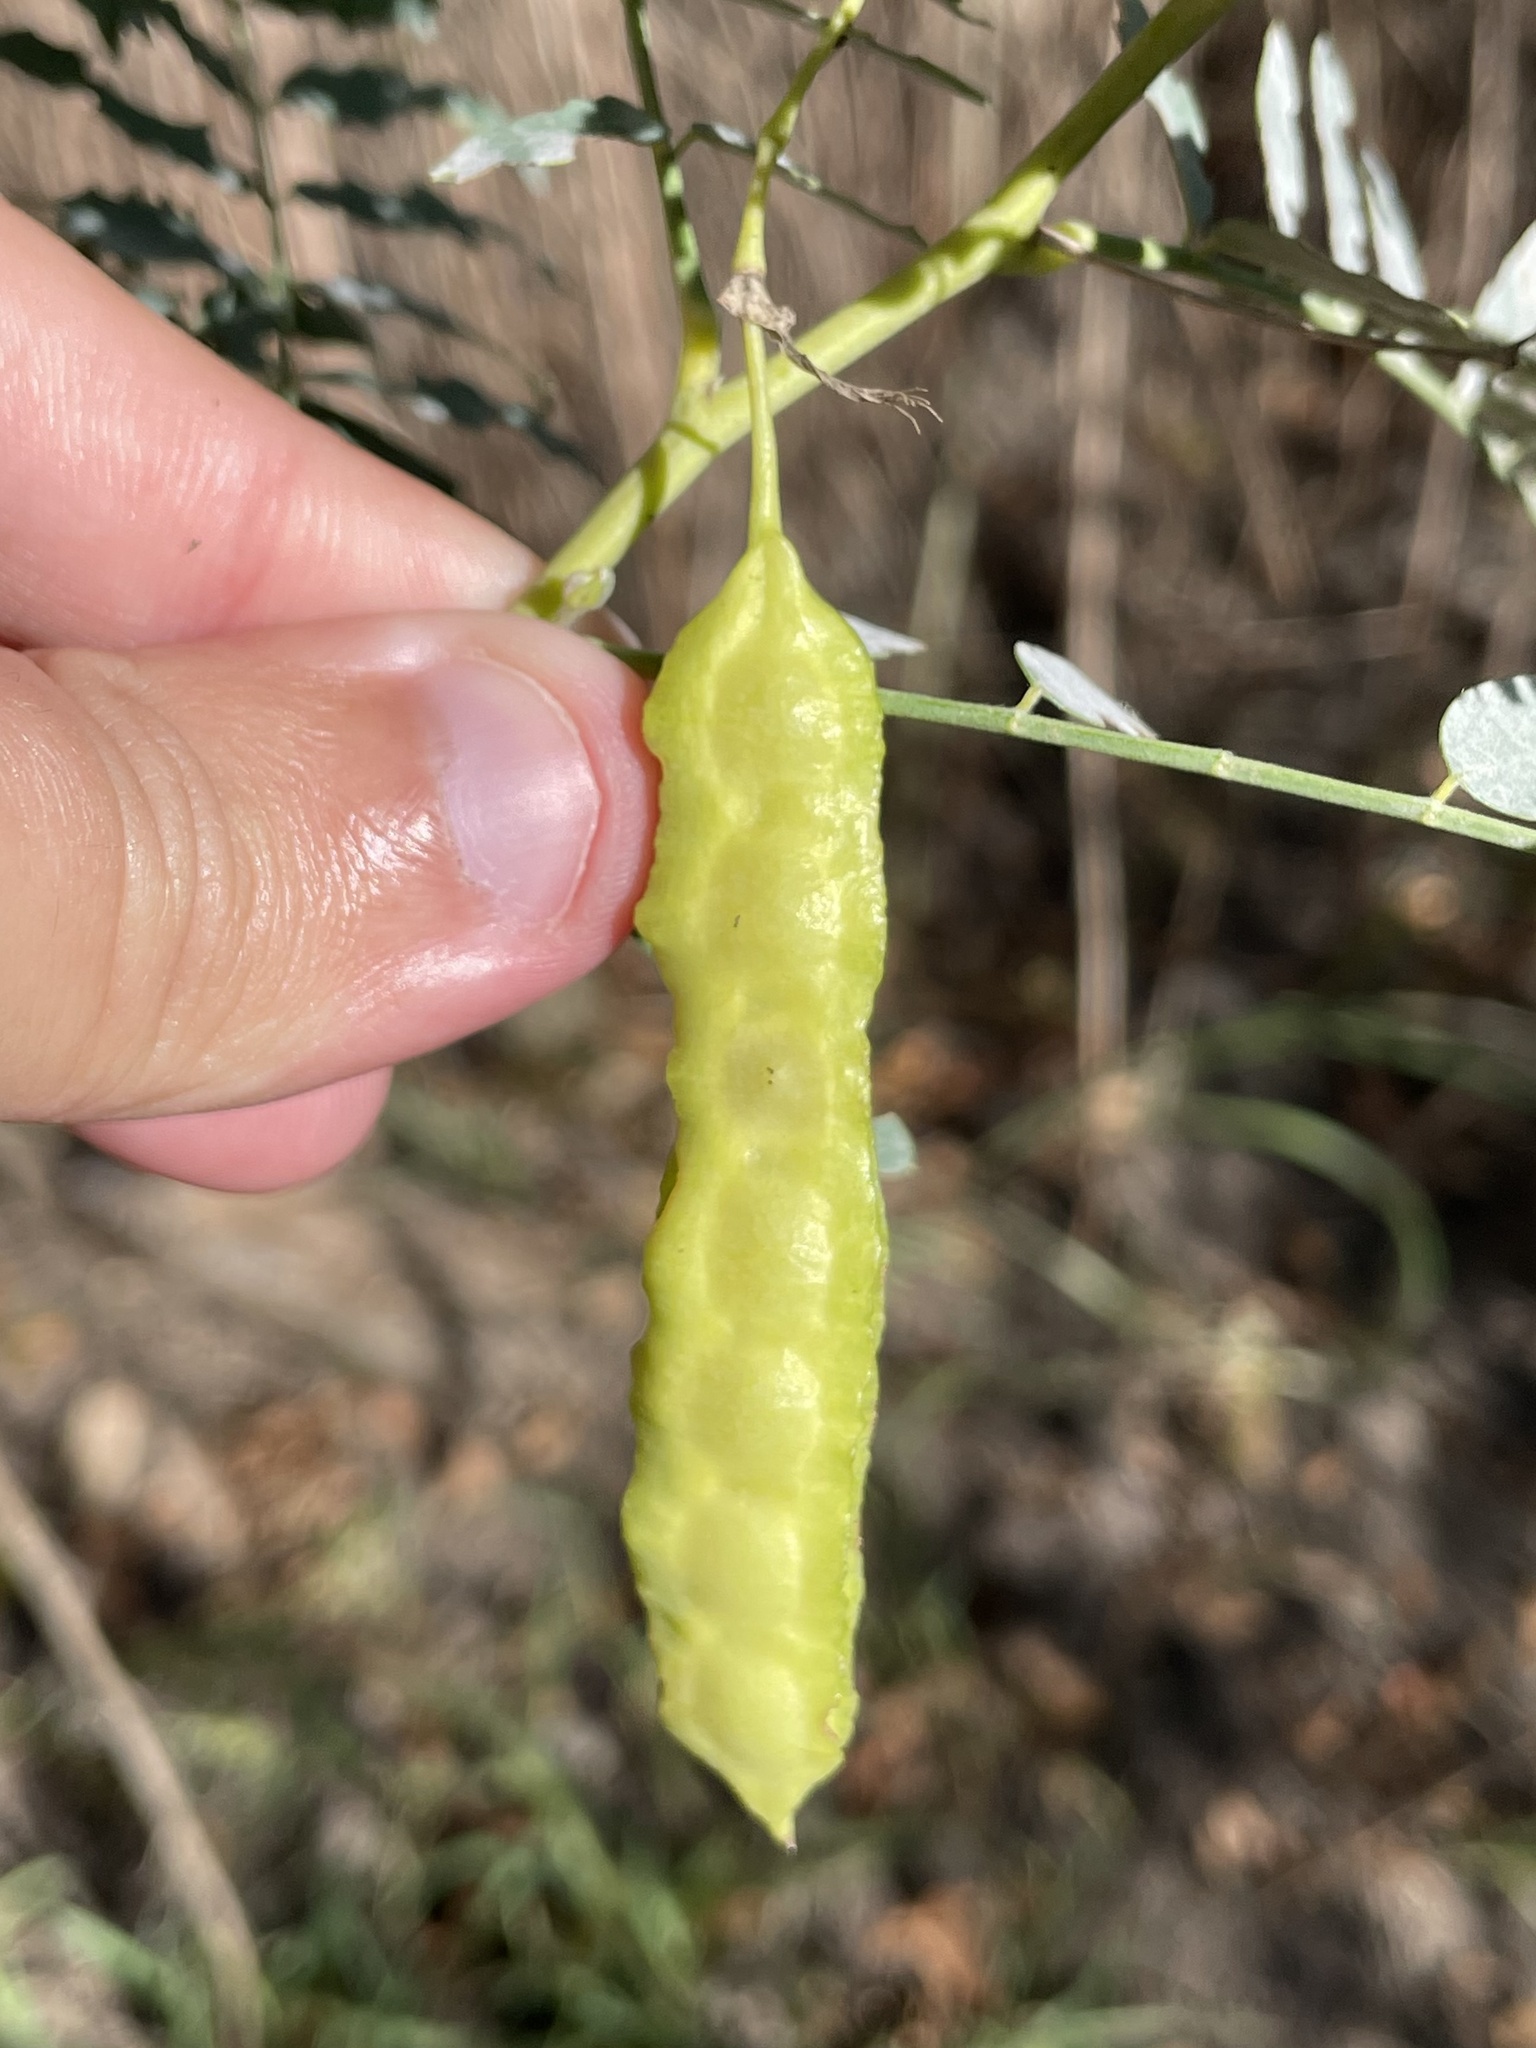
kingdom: Plantae
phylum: Tracheophyta
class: Magnoliopsida
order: Fabales
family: Fabaceae
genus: Sesbania
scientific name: Sesbania drummondii
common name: Poison-bean
